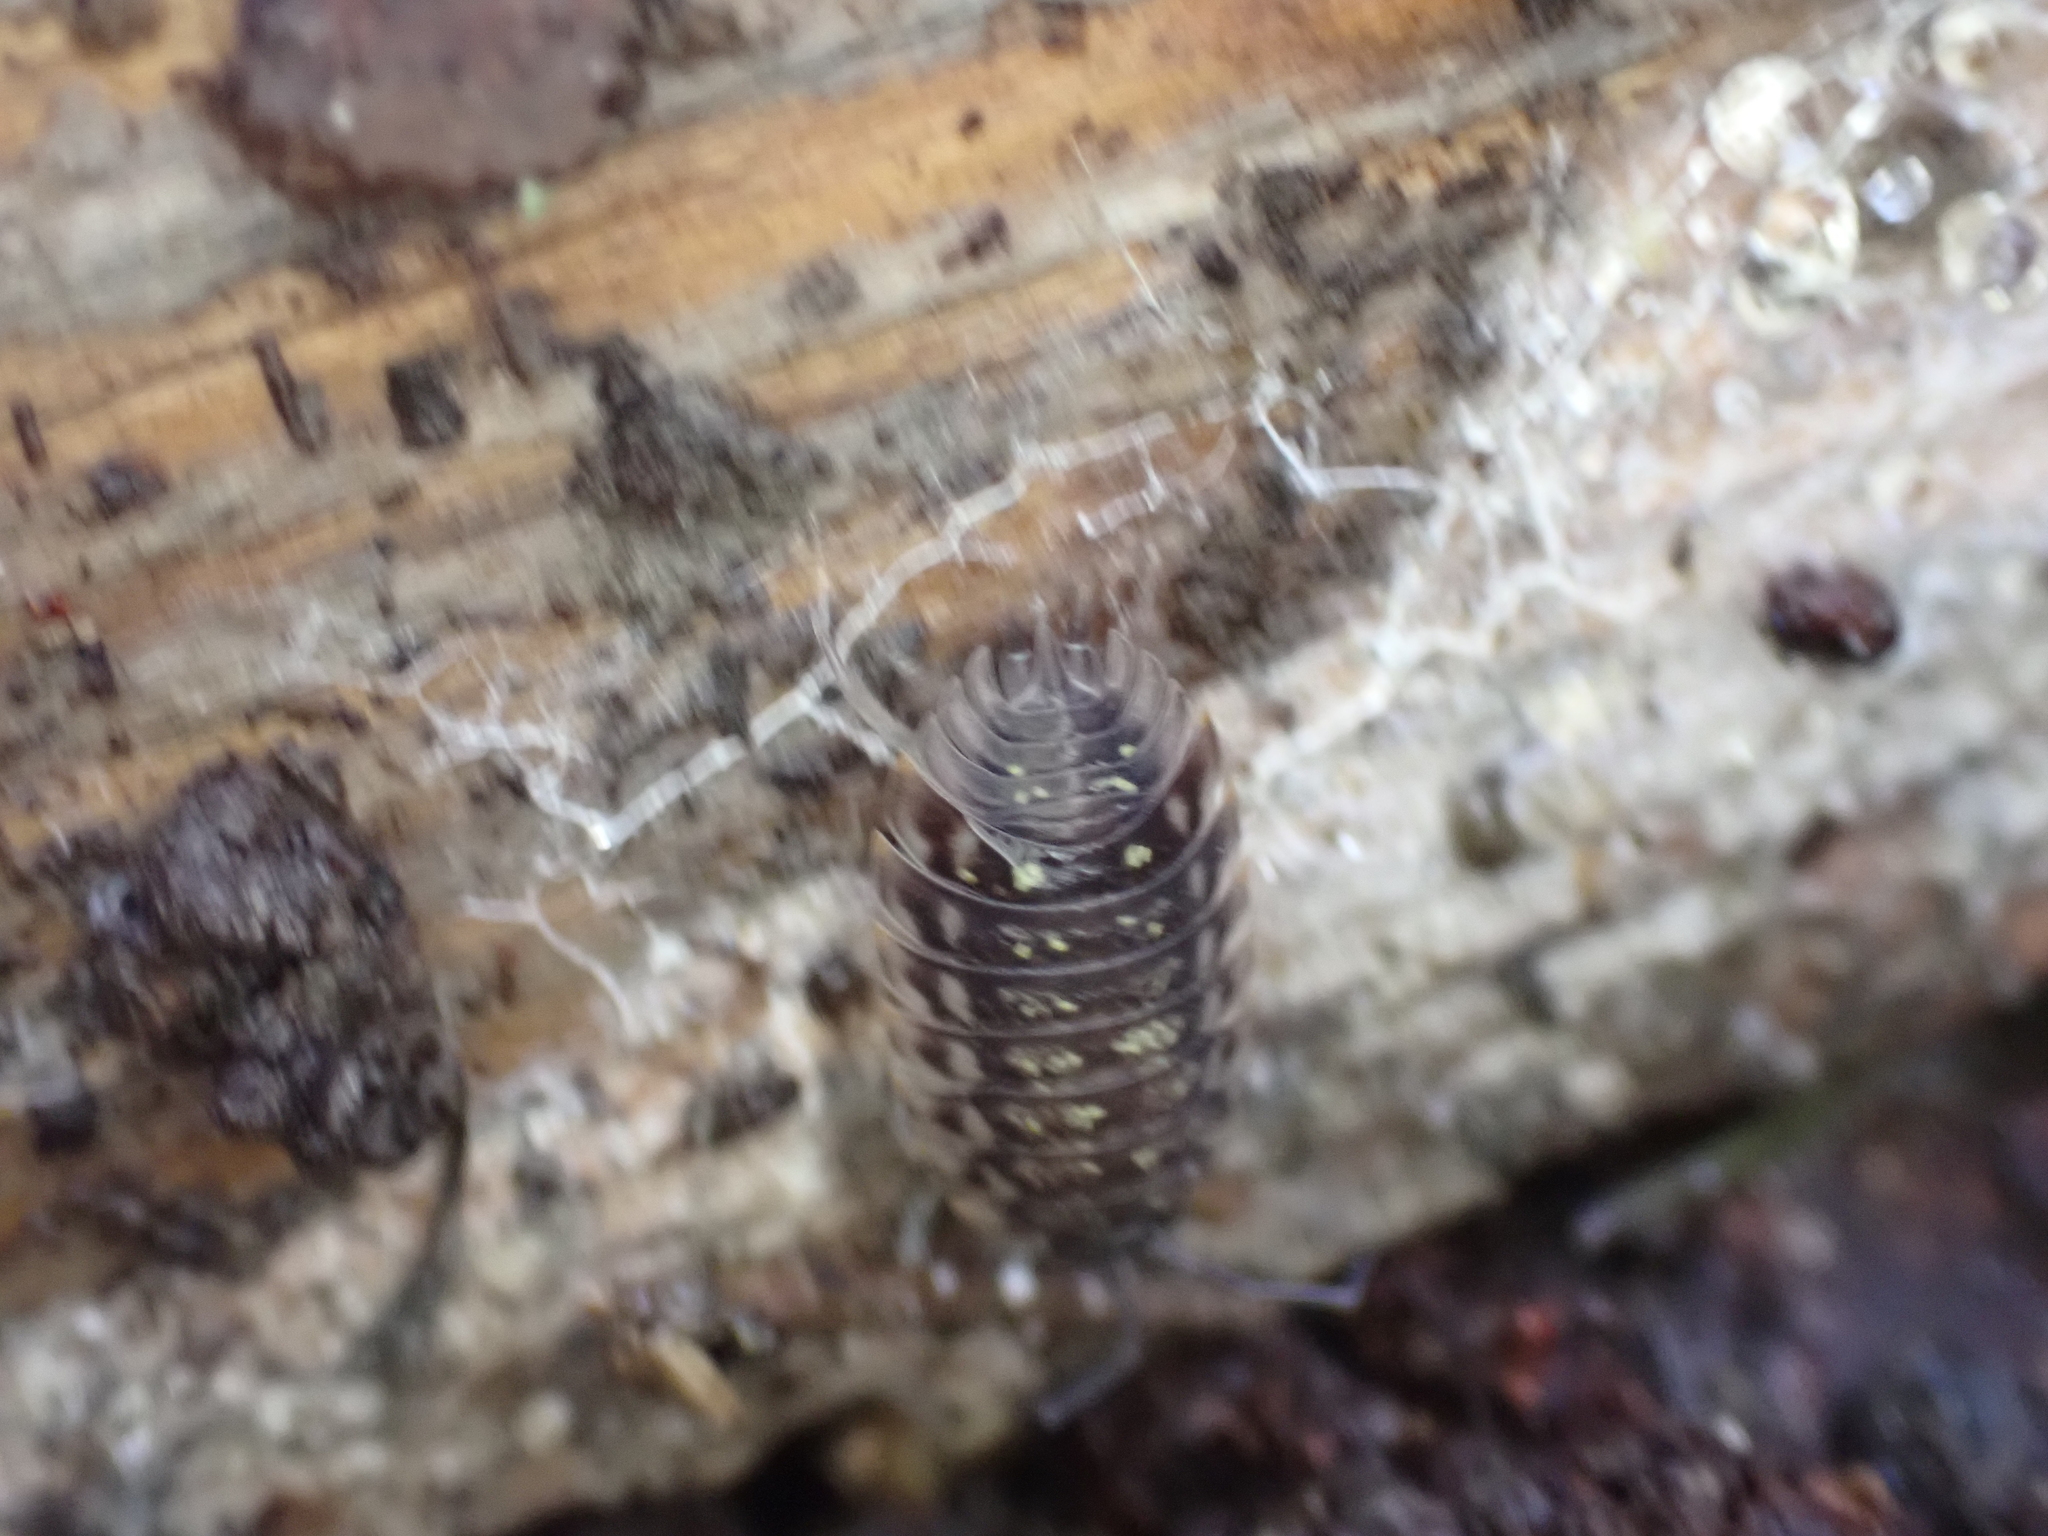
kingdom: Animalia
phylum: Arthropoda
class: Malacostraca
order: Isopoda
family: Oniscidae
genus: Oniscus
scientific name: Oniscus asellus
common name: Common shiny woodlouse
